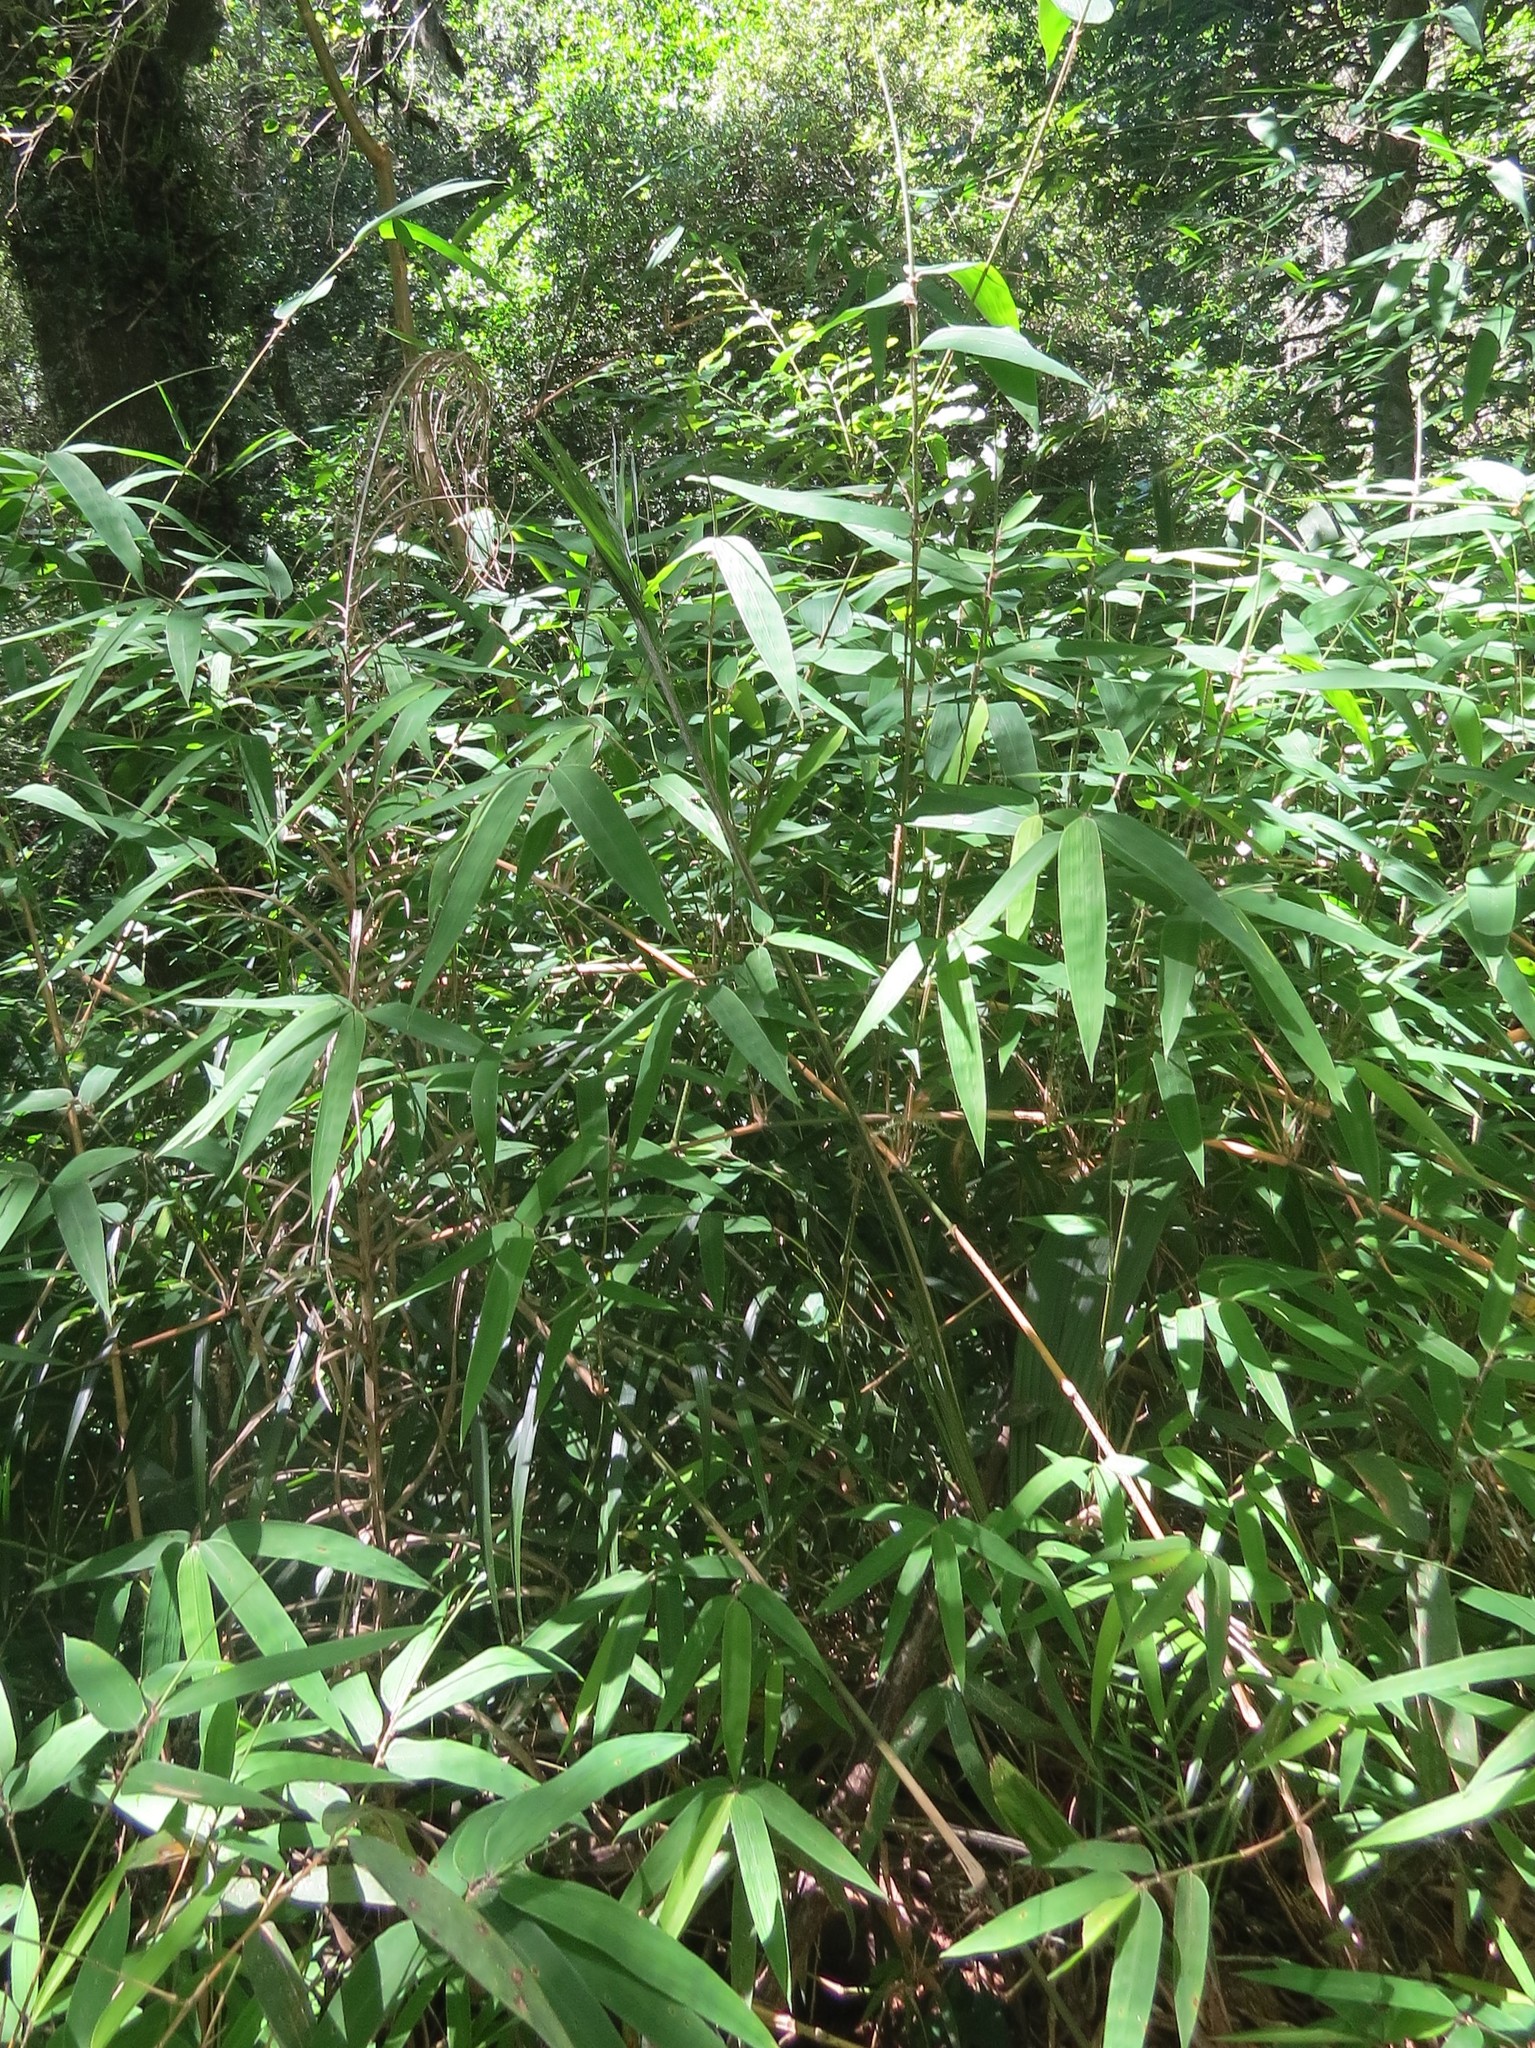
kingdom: Plantae
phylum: Tracheophyta
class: Liliopsida
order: Poales
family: Poaceae
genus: Chusquea
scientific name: Chusquea ramosissima
